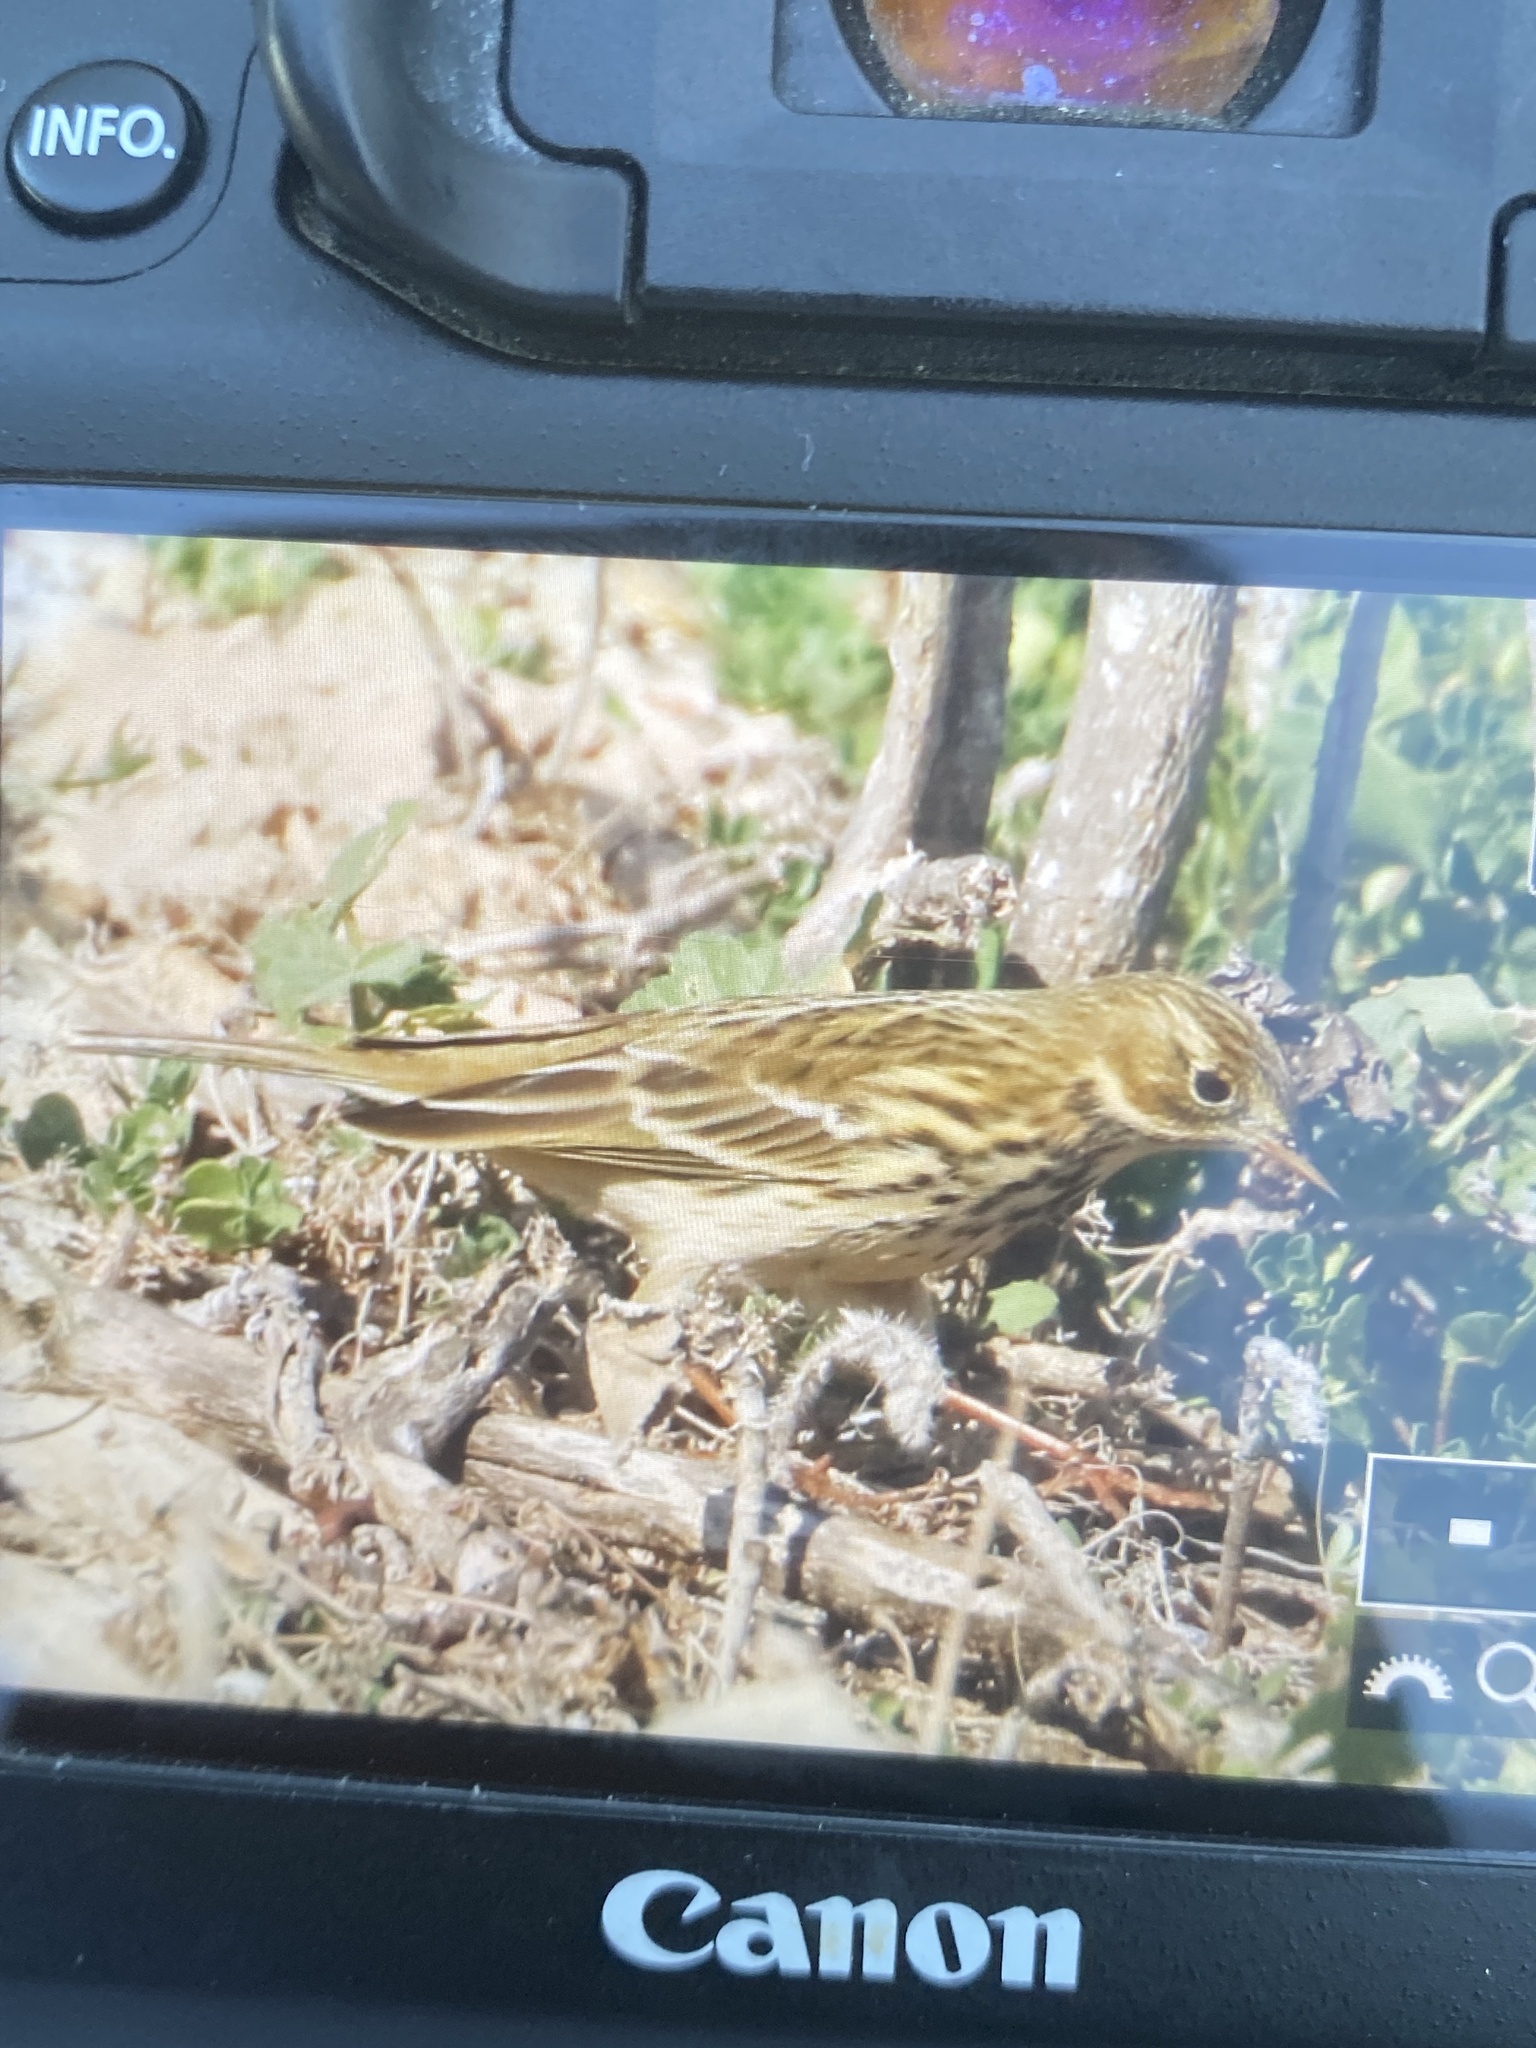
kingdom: Animalia
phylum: Chordata
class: Aves
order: Passeriformes
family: Motacillidae
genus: Anthus
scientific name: Anthus pratensis
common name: Meadow pipit
